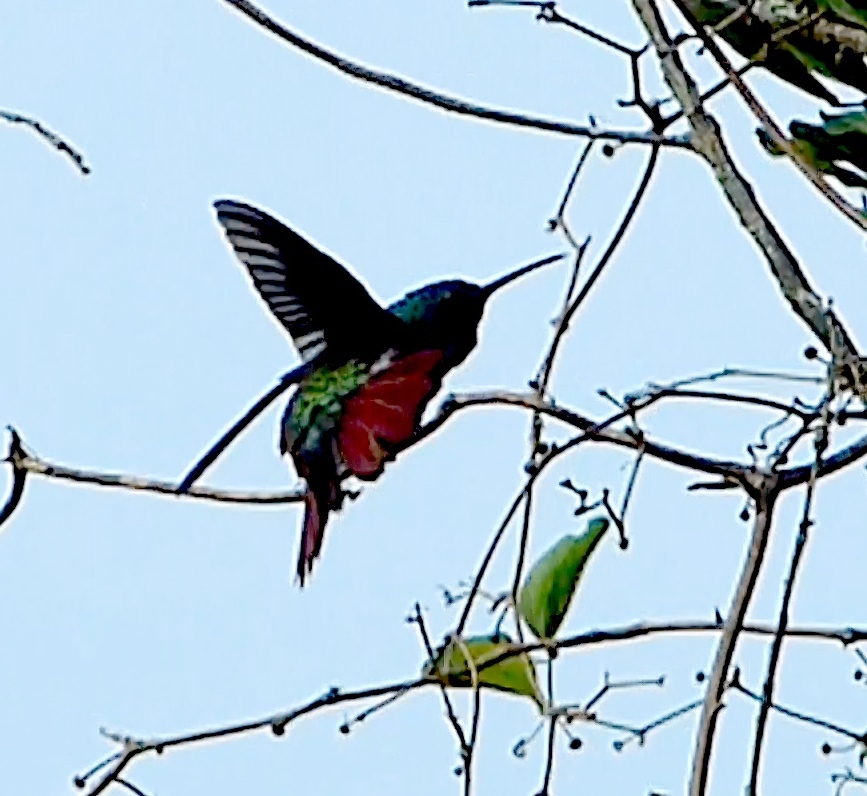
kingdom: Animalia
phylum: Chordata
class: Aves
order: Apodiformes
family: Trochilidae
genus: Anthracothorax
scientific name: Anthracothorax nigricollis
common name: Black-throated mango
